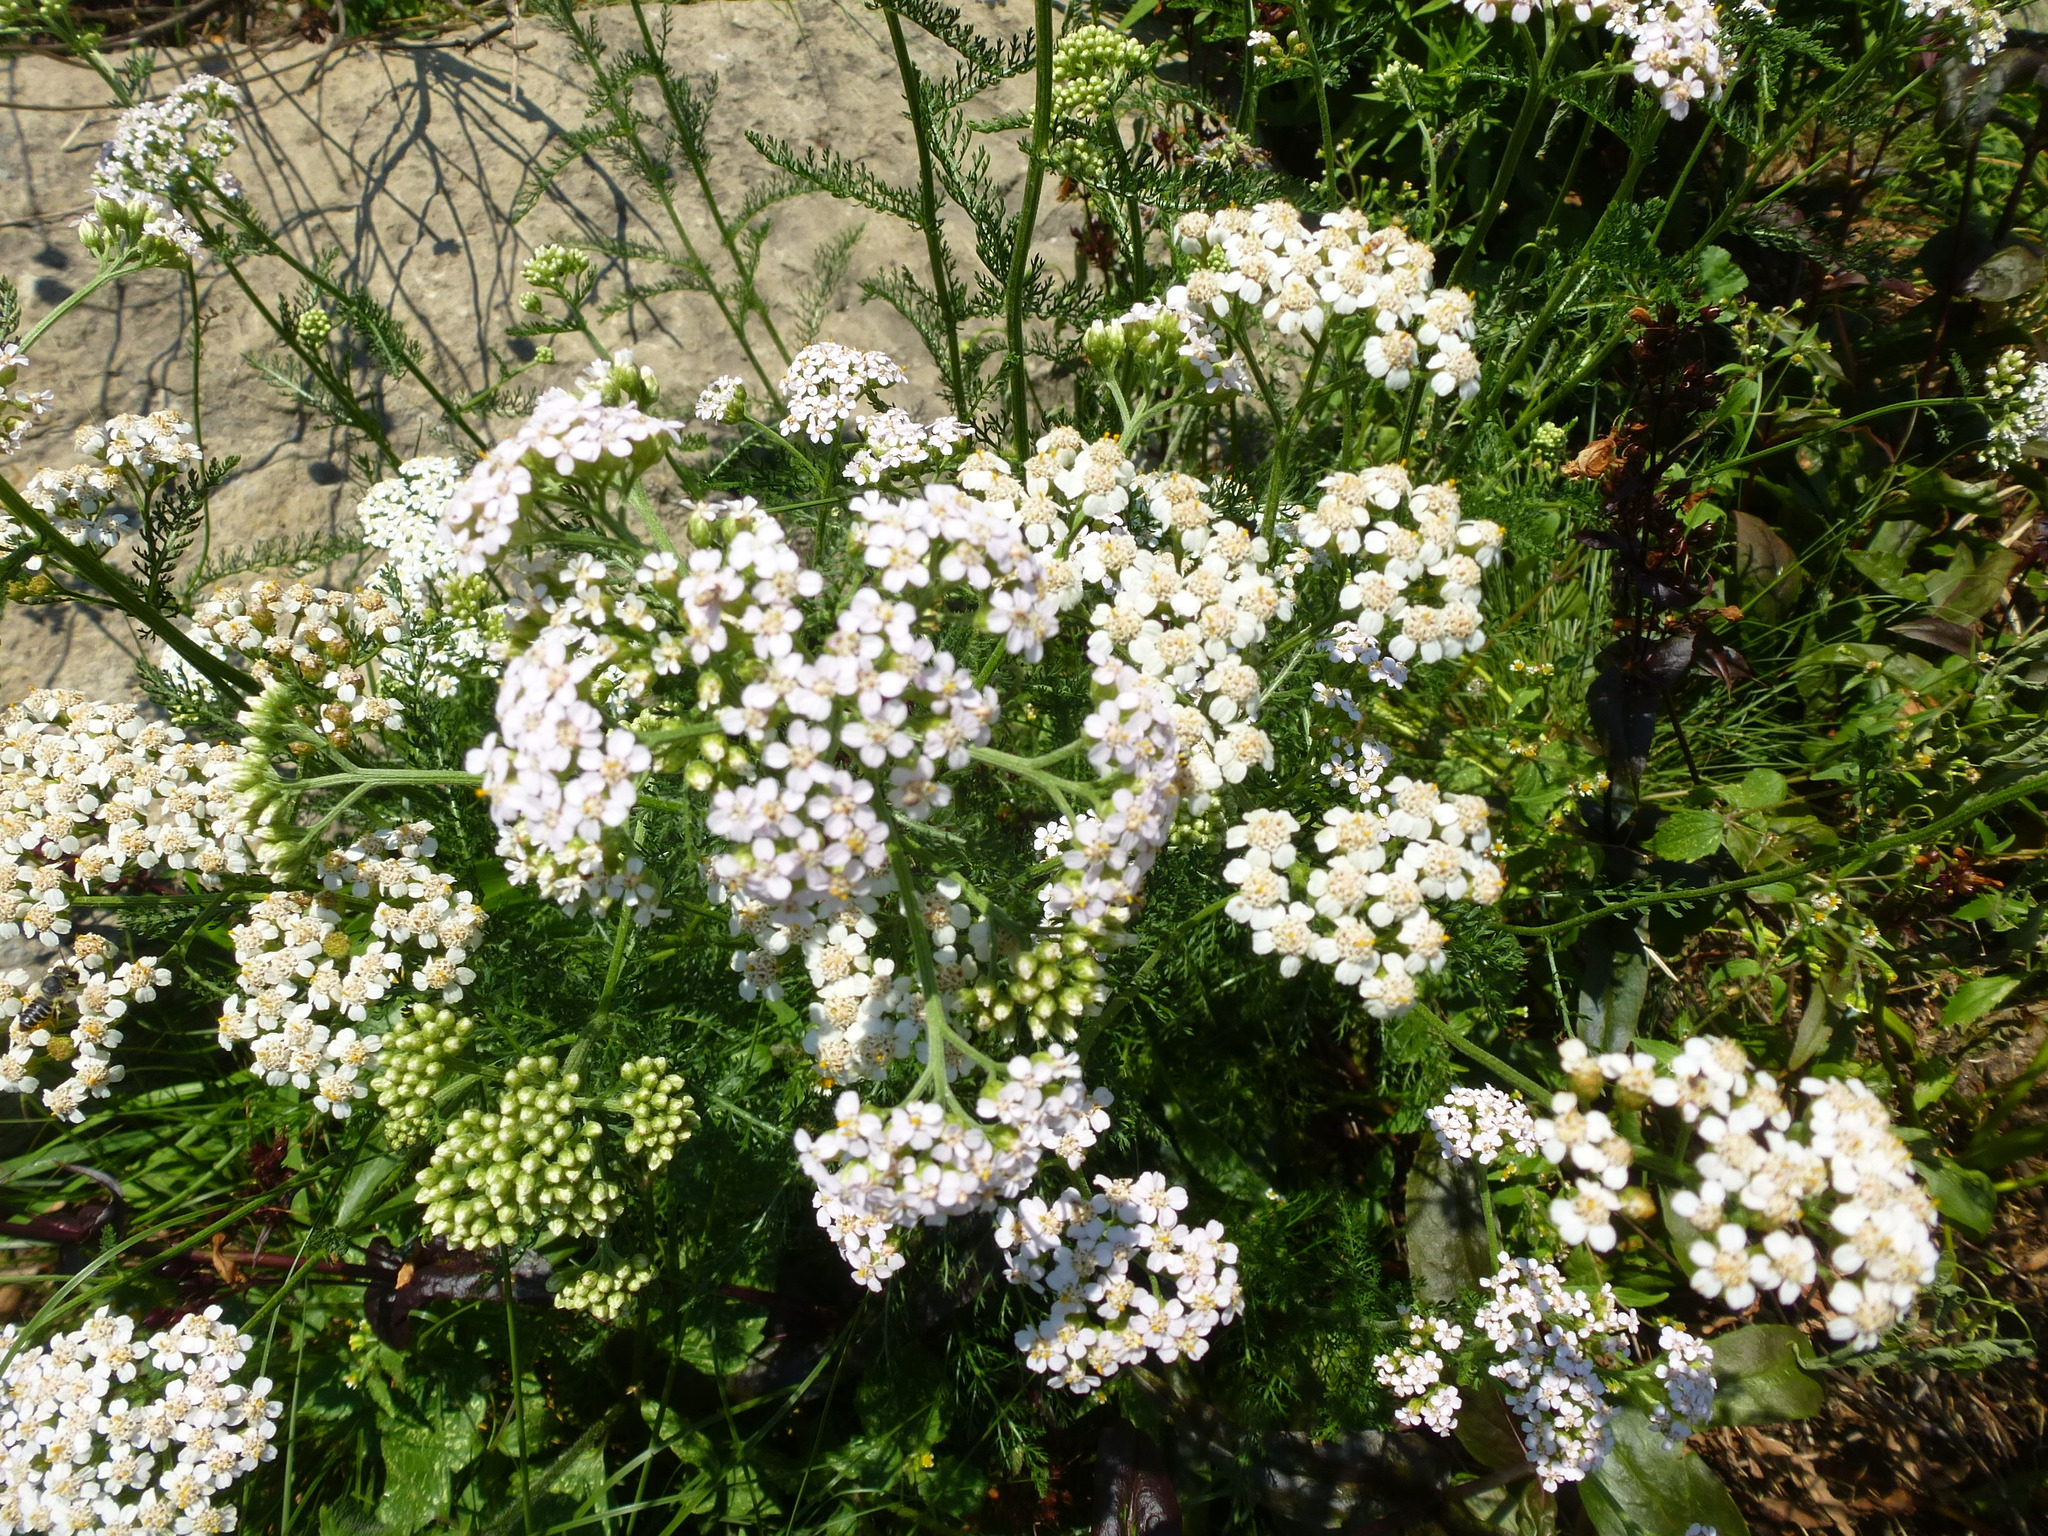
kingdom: Plantae
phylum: Tracheophyta
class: Magnoliopsida
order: Asterales
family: Asteraceae
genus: Achillea
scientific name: Achillea millefolium
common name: Yarrow
